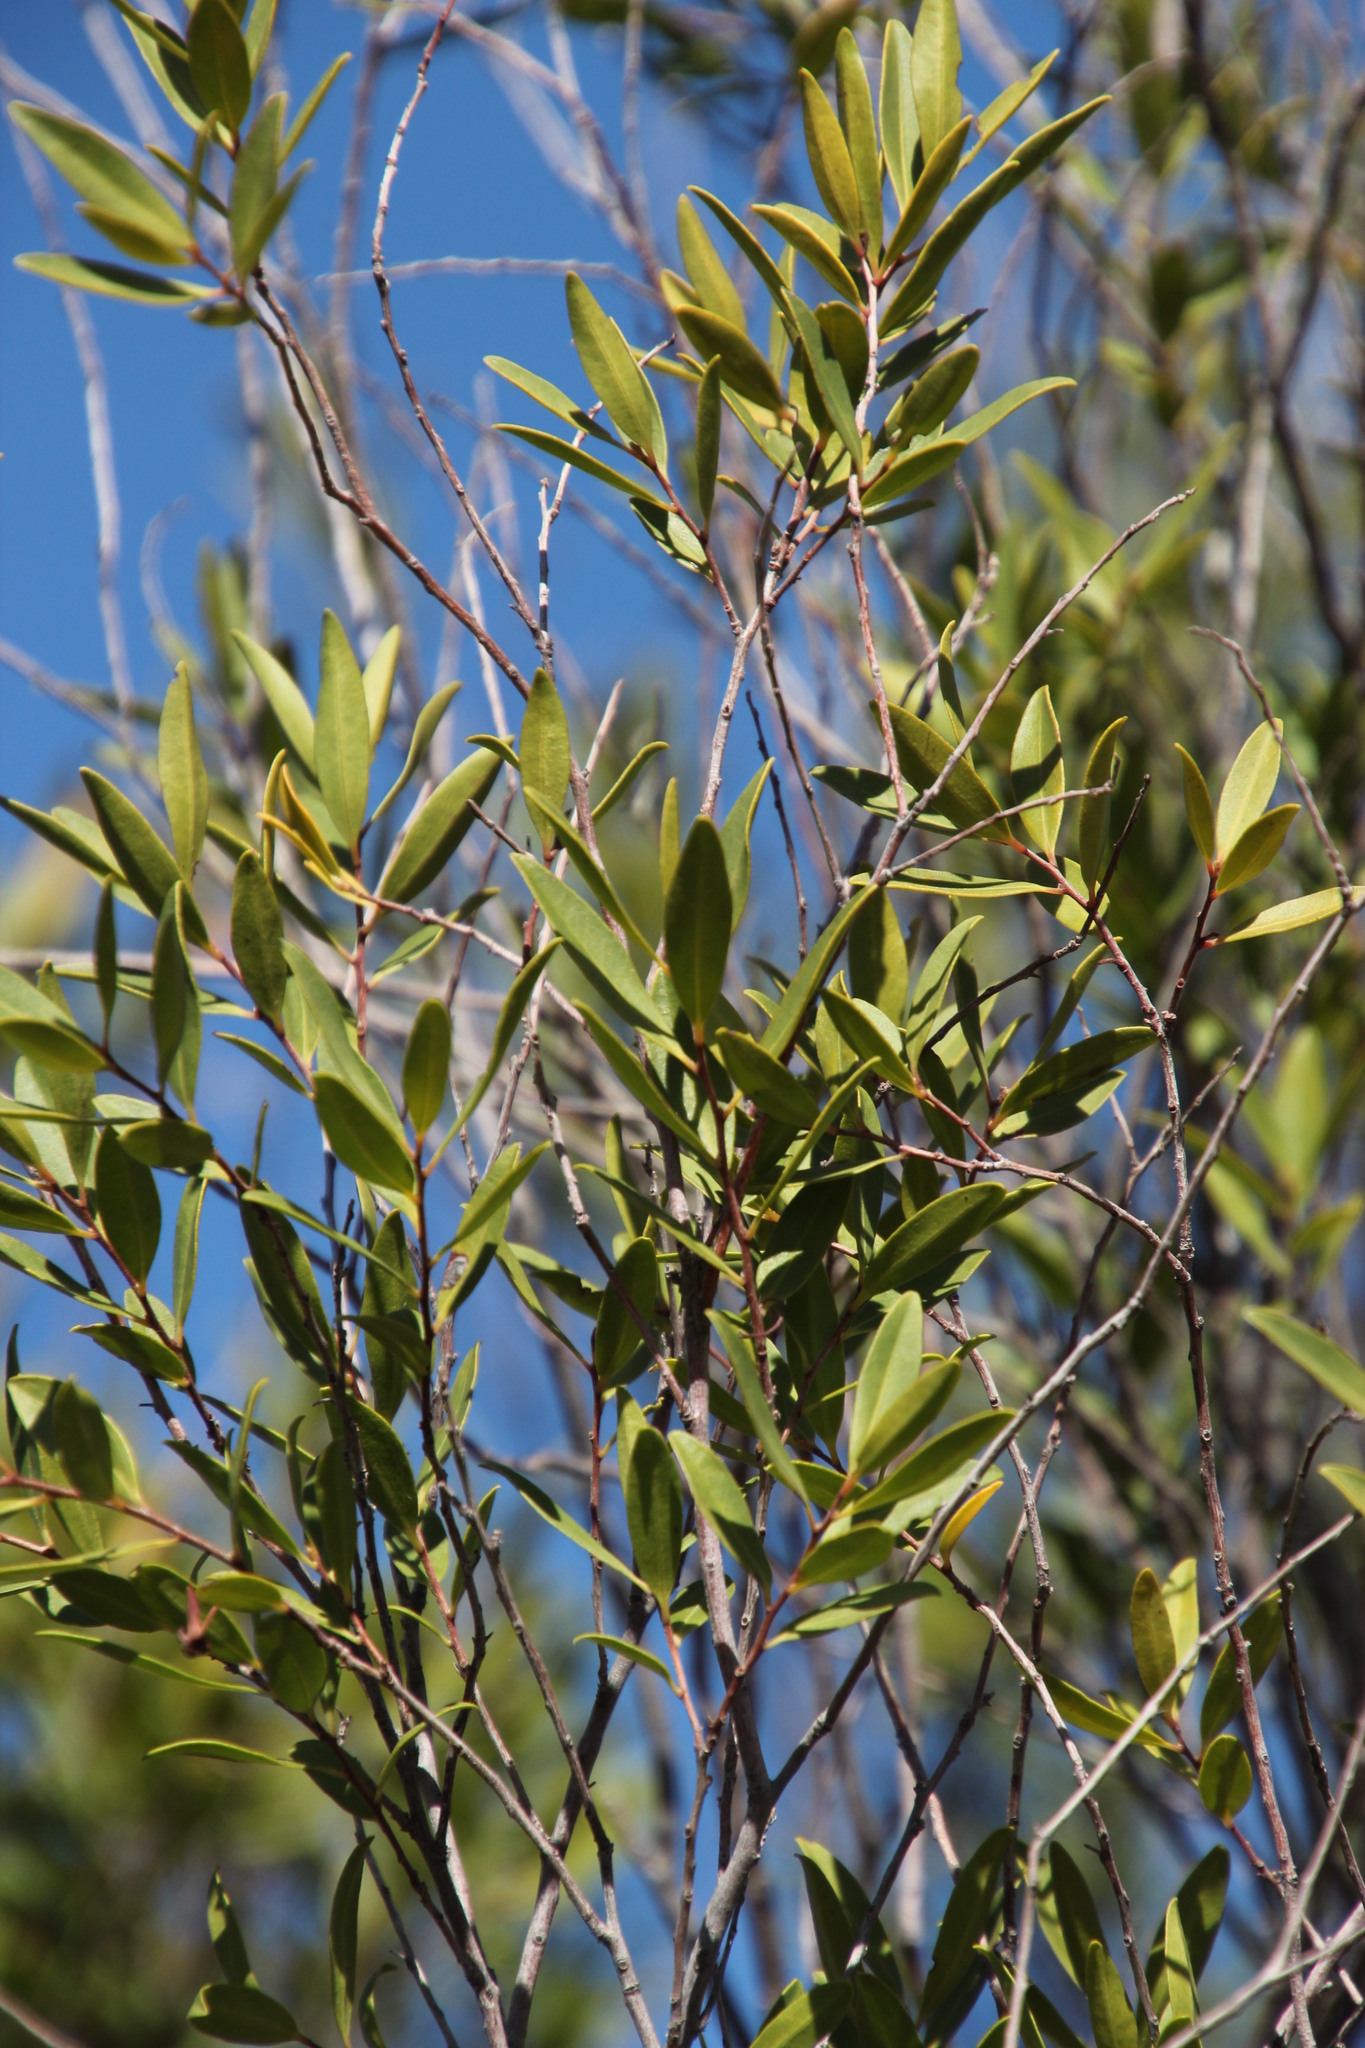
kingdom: Plantae
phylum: Tracheophyta
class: Magnoliopsida
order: Celastrales
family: Celastraceae
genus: Gymnosporia
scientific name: Gymnosporia laurina
